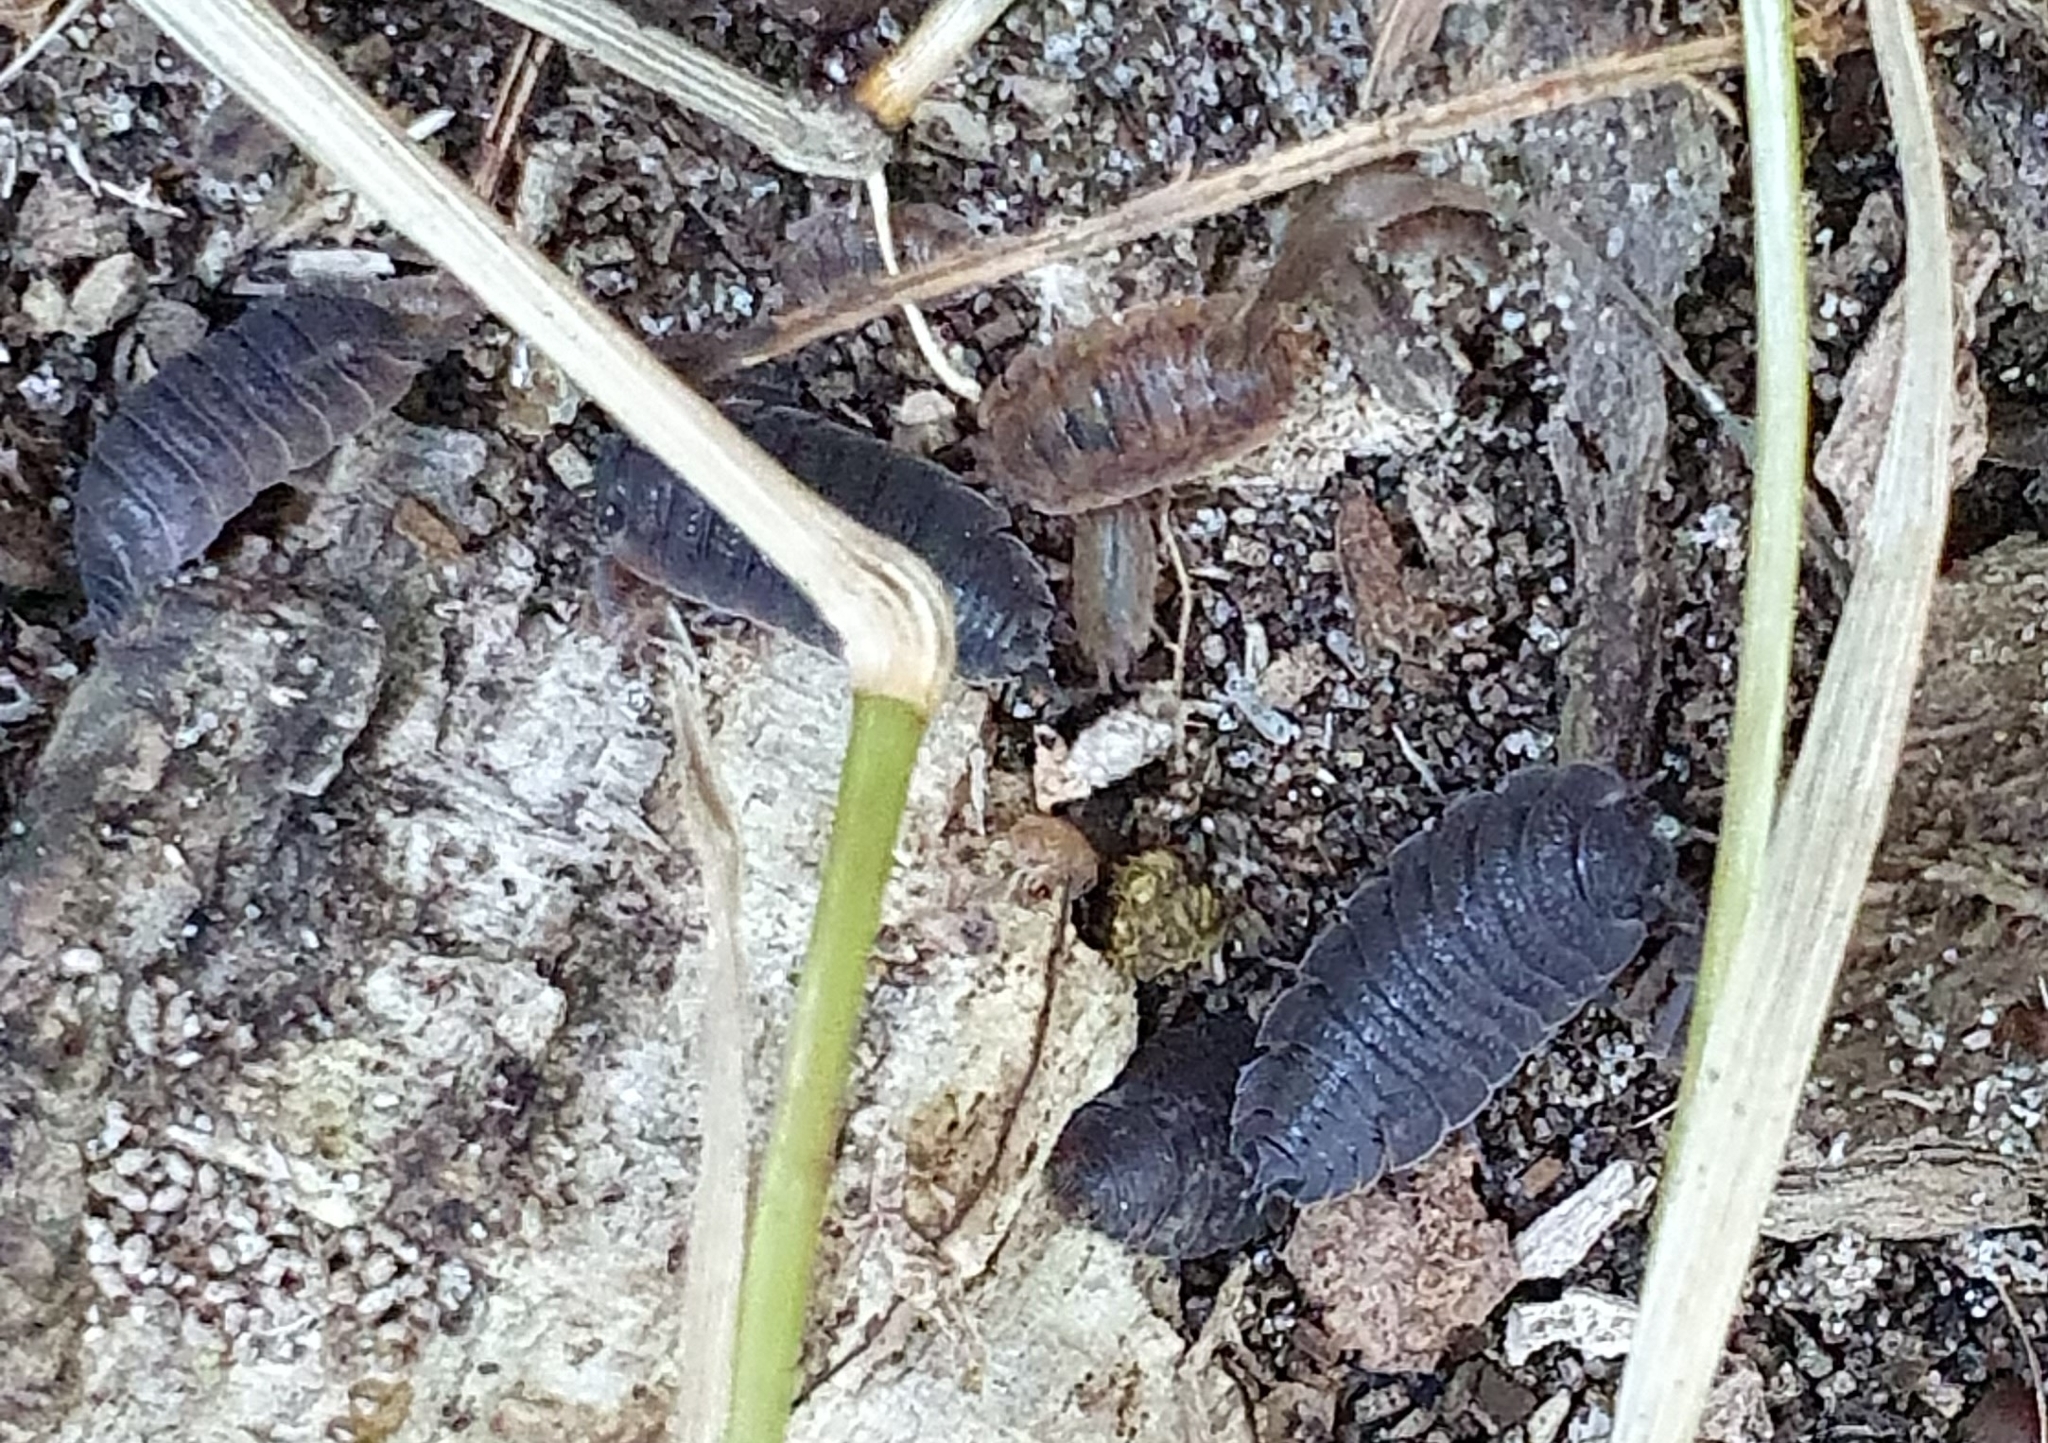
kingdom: Animalia
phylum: Arthropoda
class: Malacostraca
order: Isopoda
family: Porcellionidae
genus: Porcellio
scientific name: Porcellio scaber
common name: Common rough woodlouse
